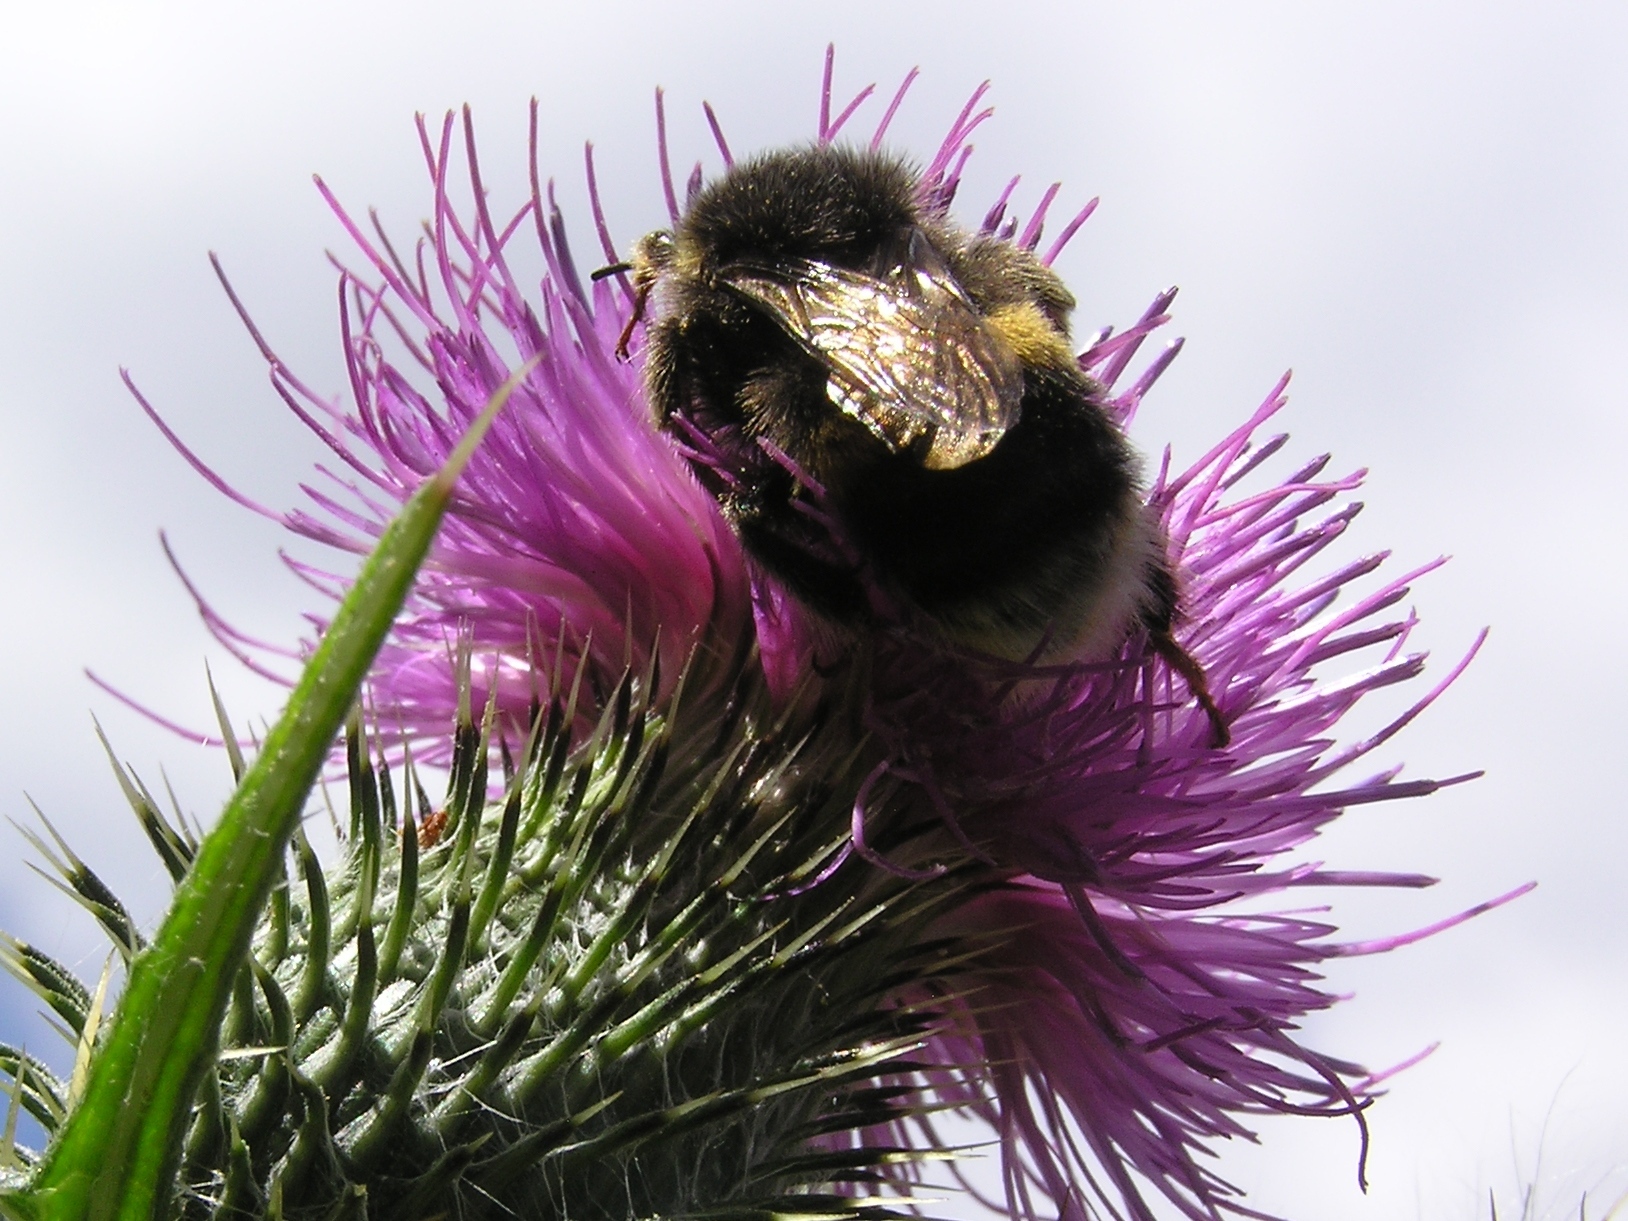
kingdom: Animalia
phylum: Arthropoda
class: Insecta
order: Hymenoptera
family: Apidae
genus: Bombus
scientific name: Bombus terrestris
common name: Buff-tailed bumblebee
